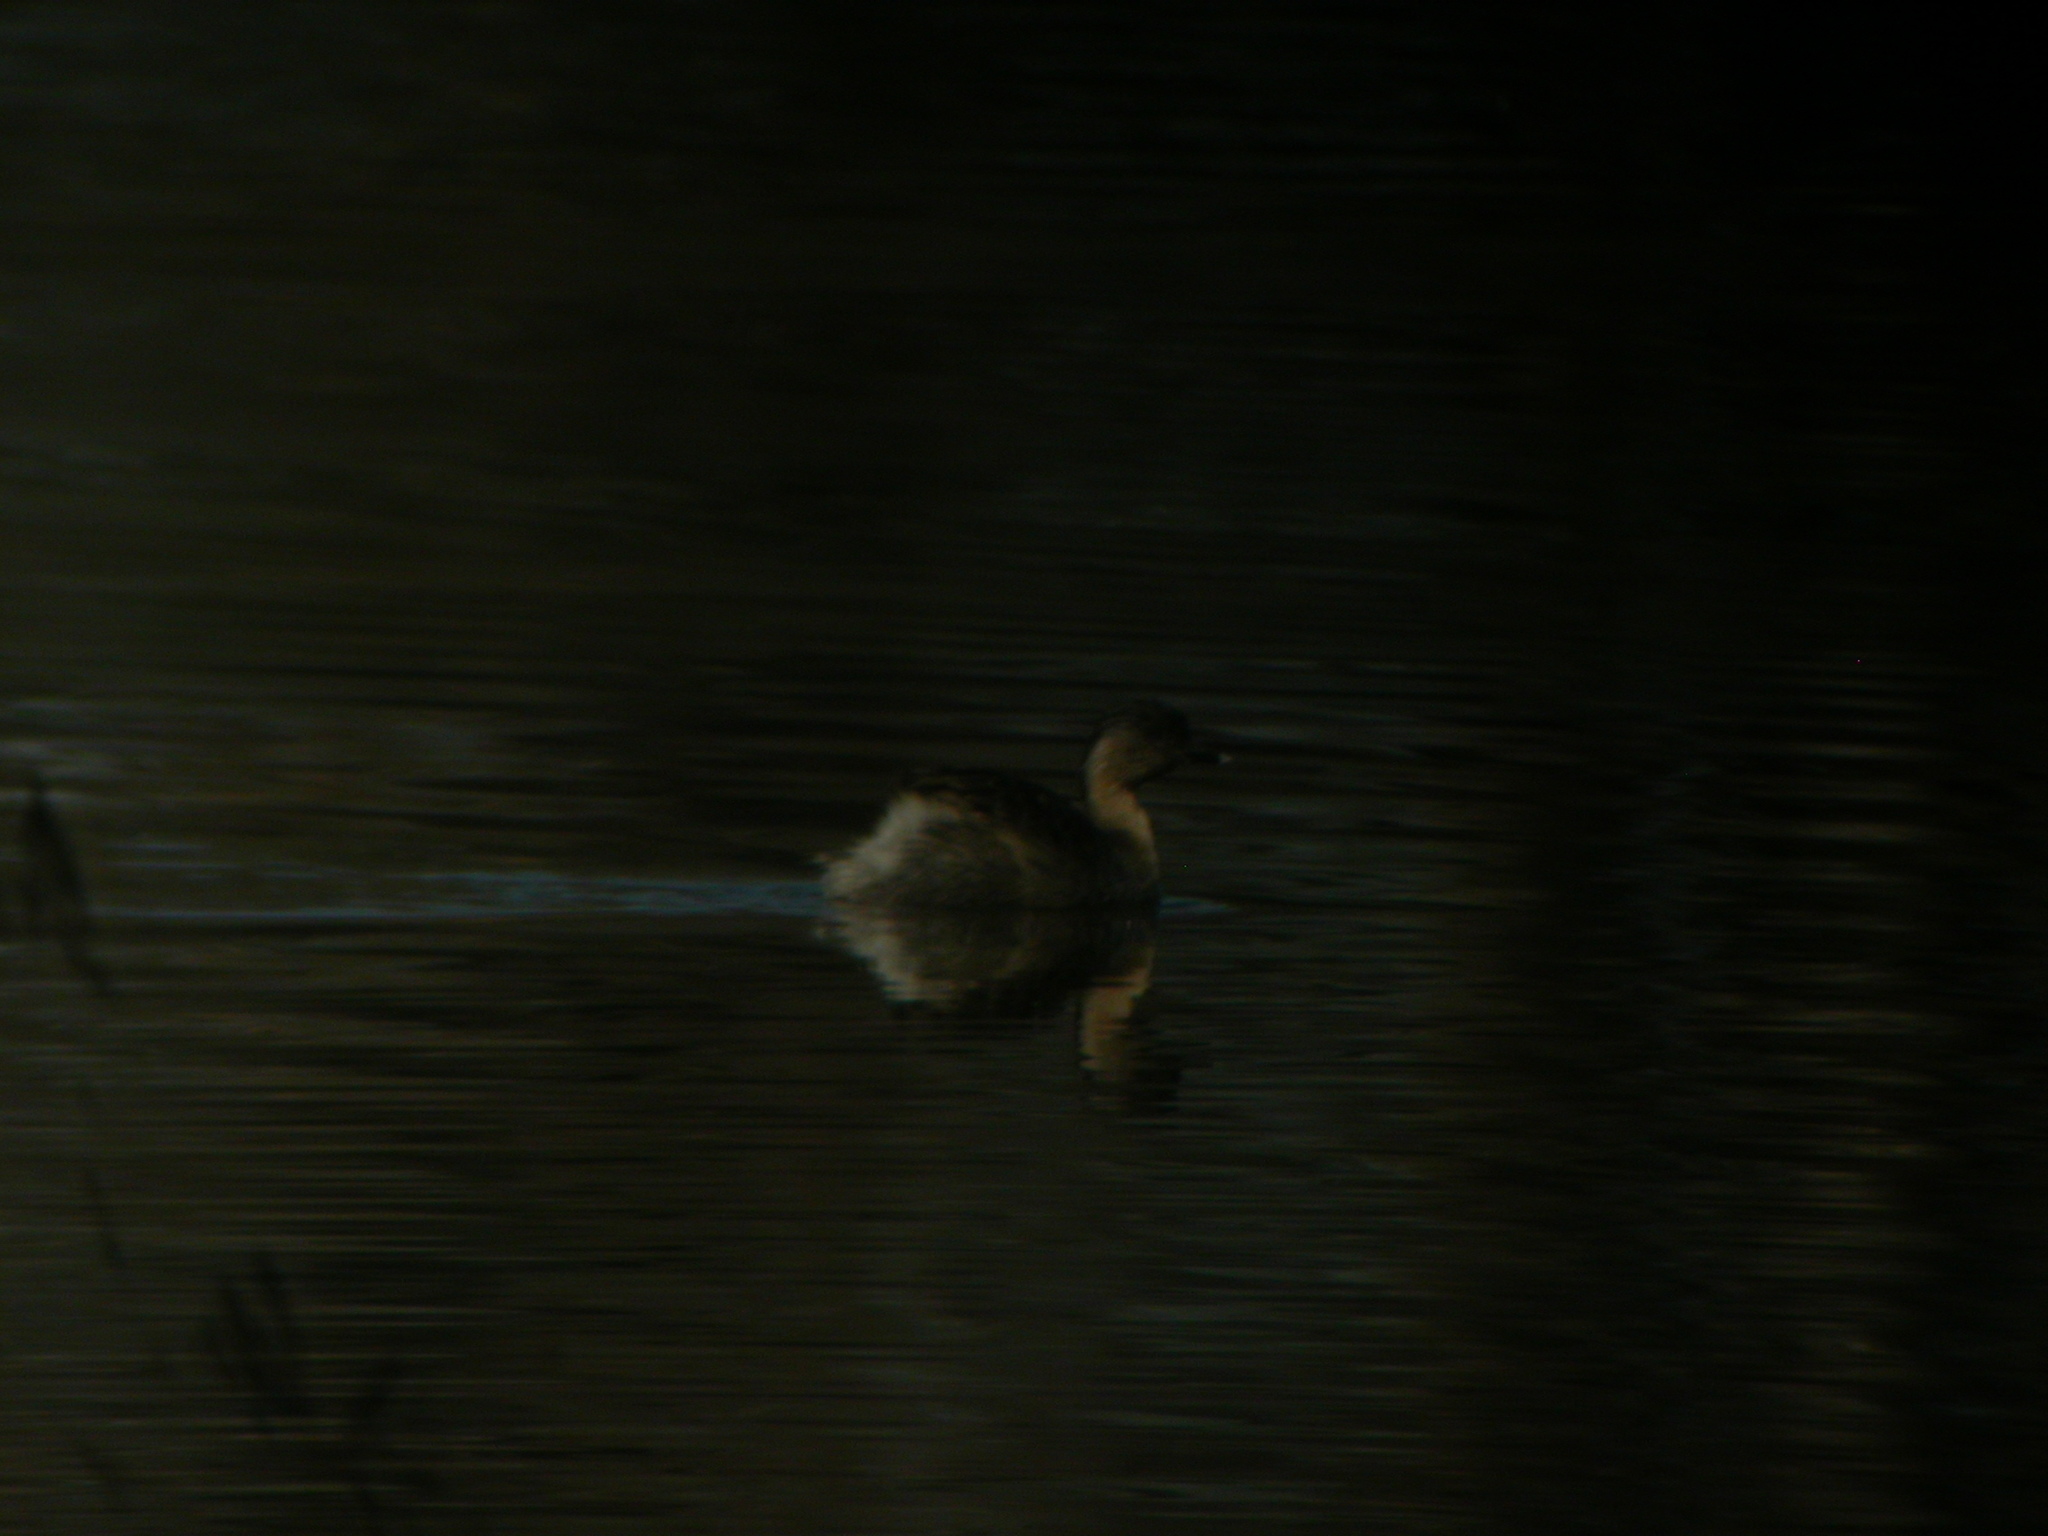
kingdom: Animalia
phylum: Chordata
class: Aves
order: Podicipediformes
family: Podicipedidae
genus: Tachybaptus
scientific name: Tachybaptus novaehollandiae
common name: Australasian grebe
